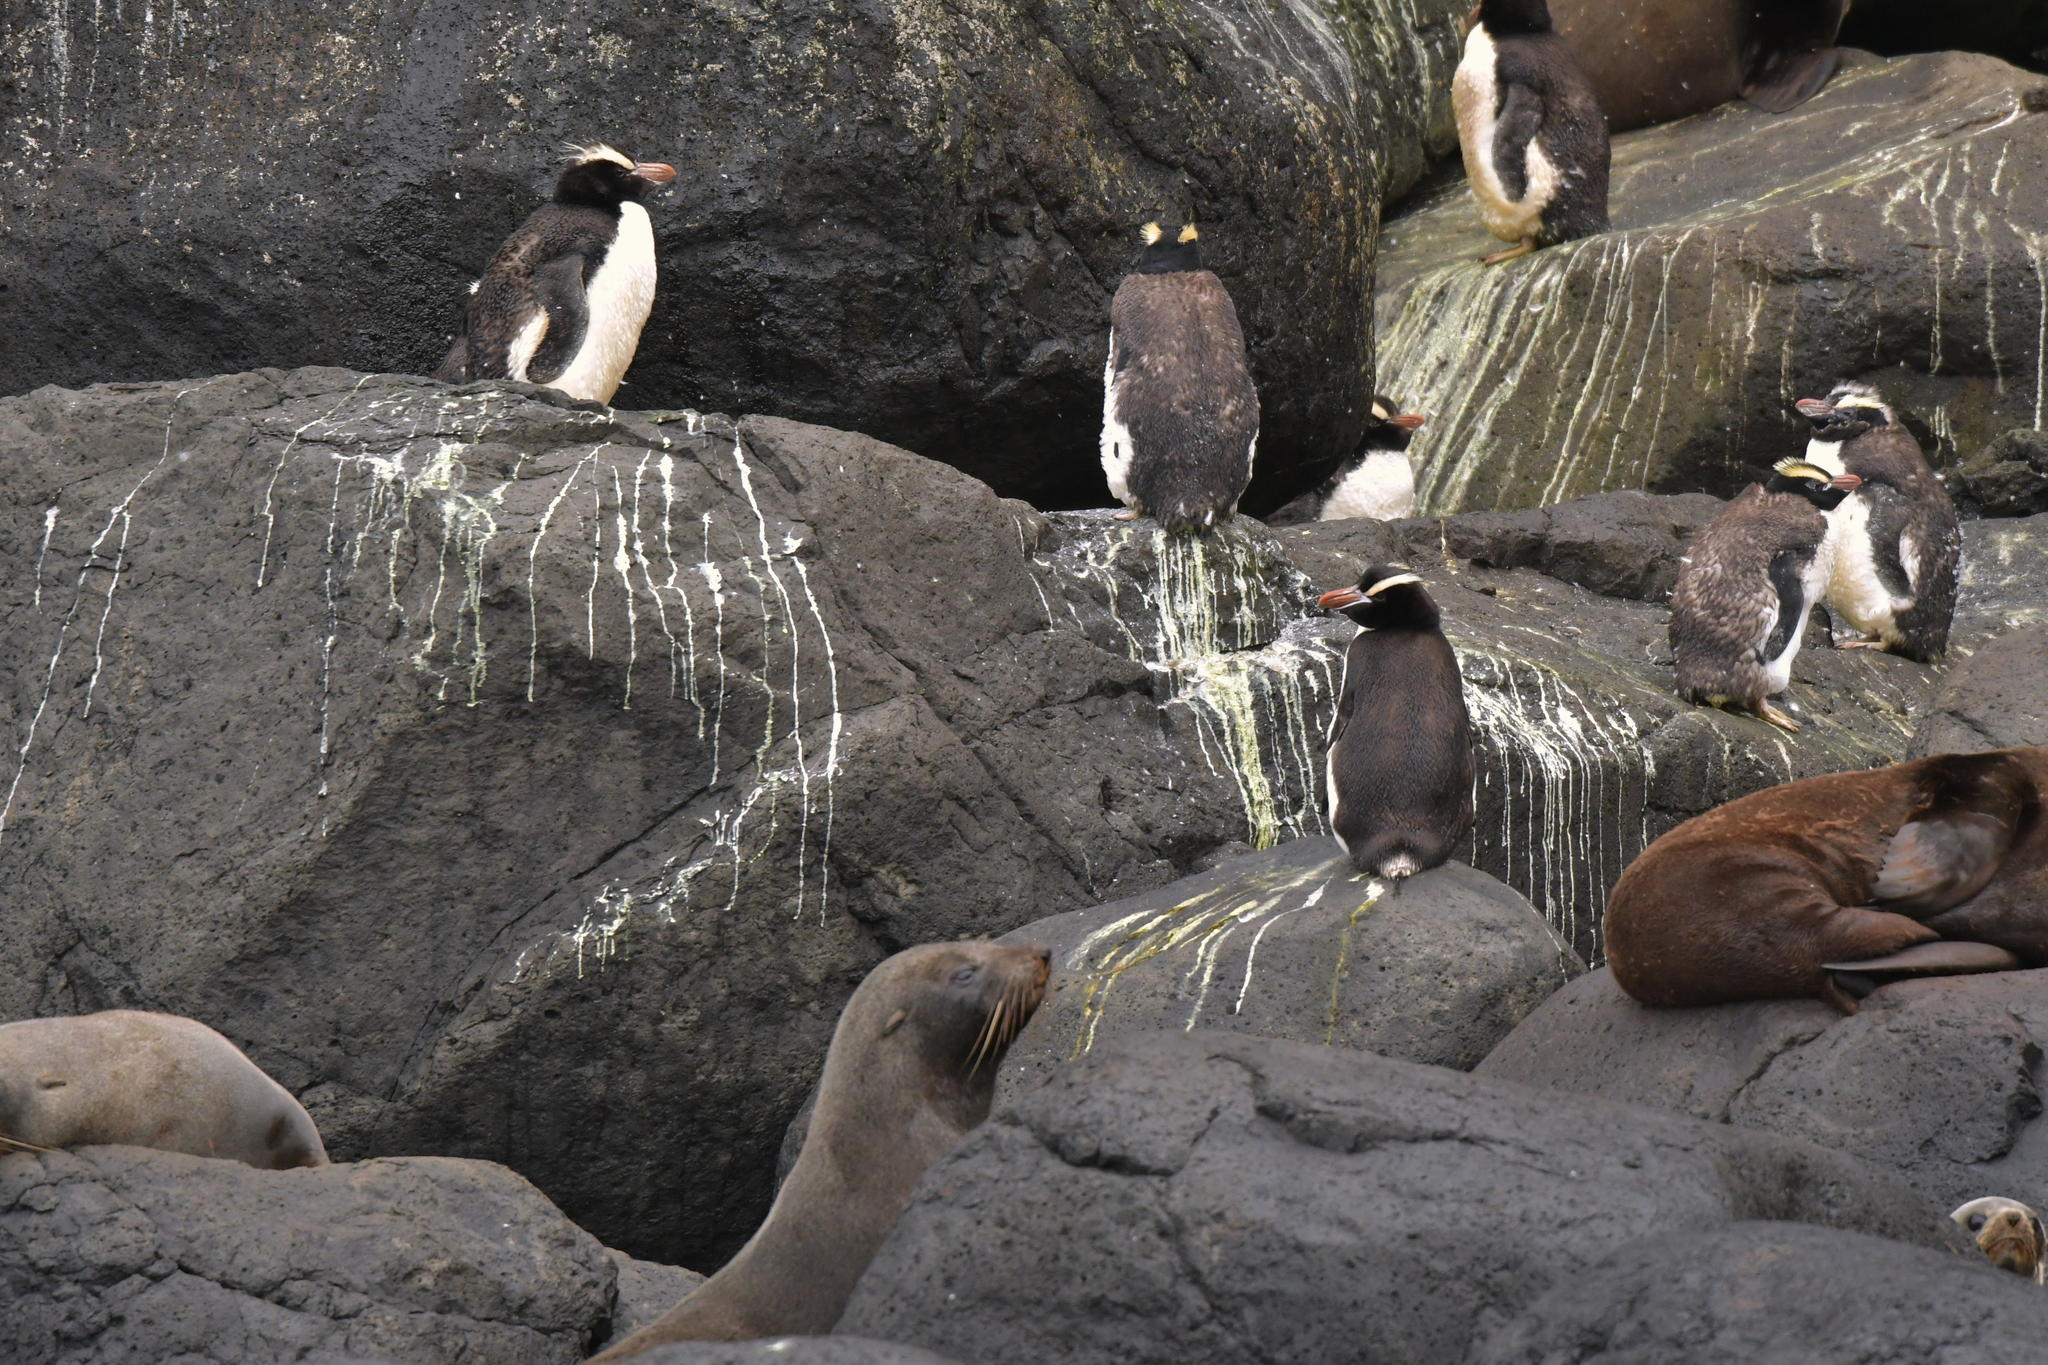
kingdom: Animalia
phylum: Chordata
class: Aves
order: Sphenisciformes
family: Spheniscidae
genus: Eudyptes
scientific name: Eudyptes sclateri
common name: Erect-crested penguin
